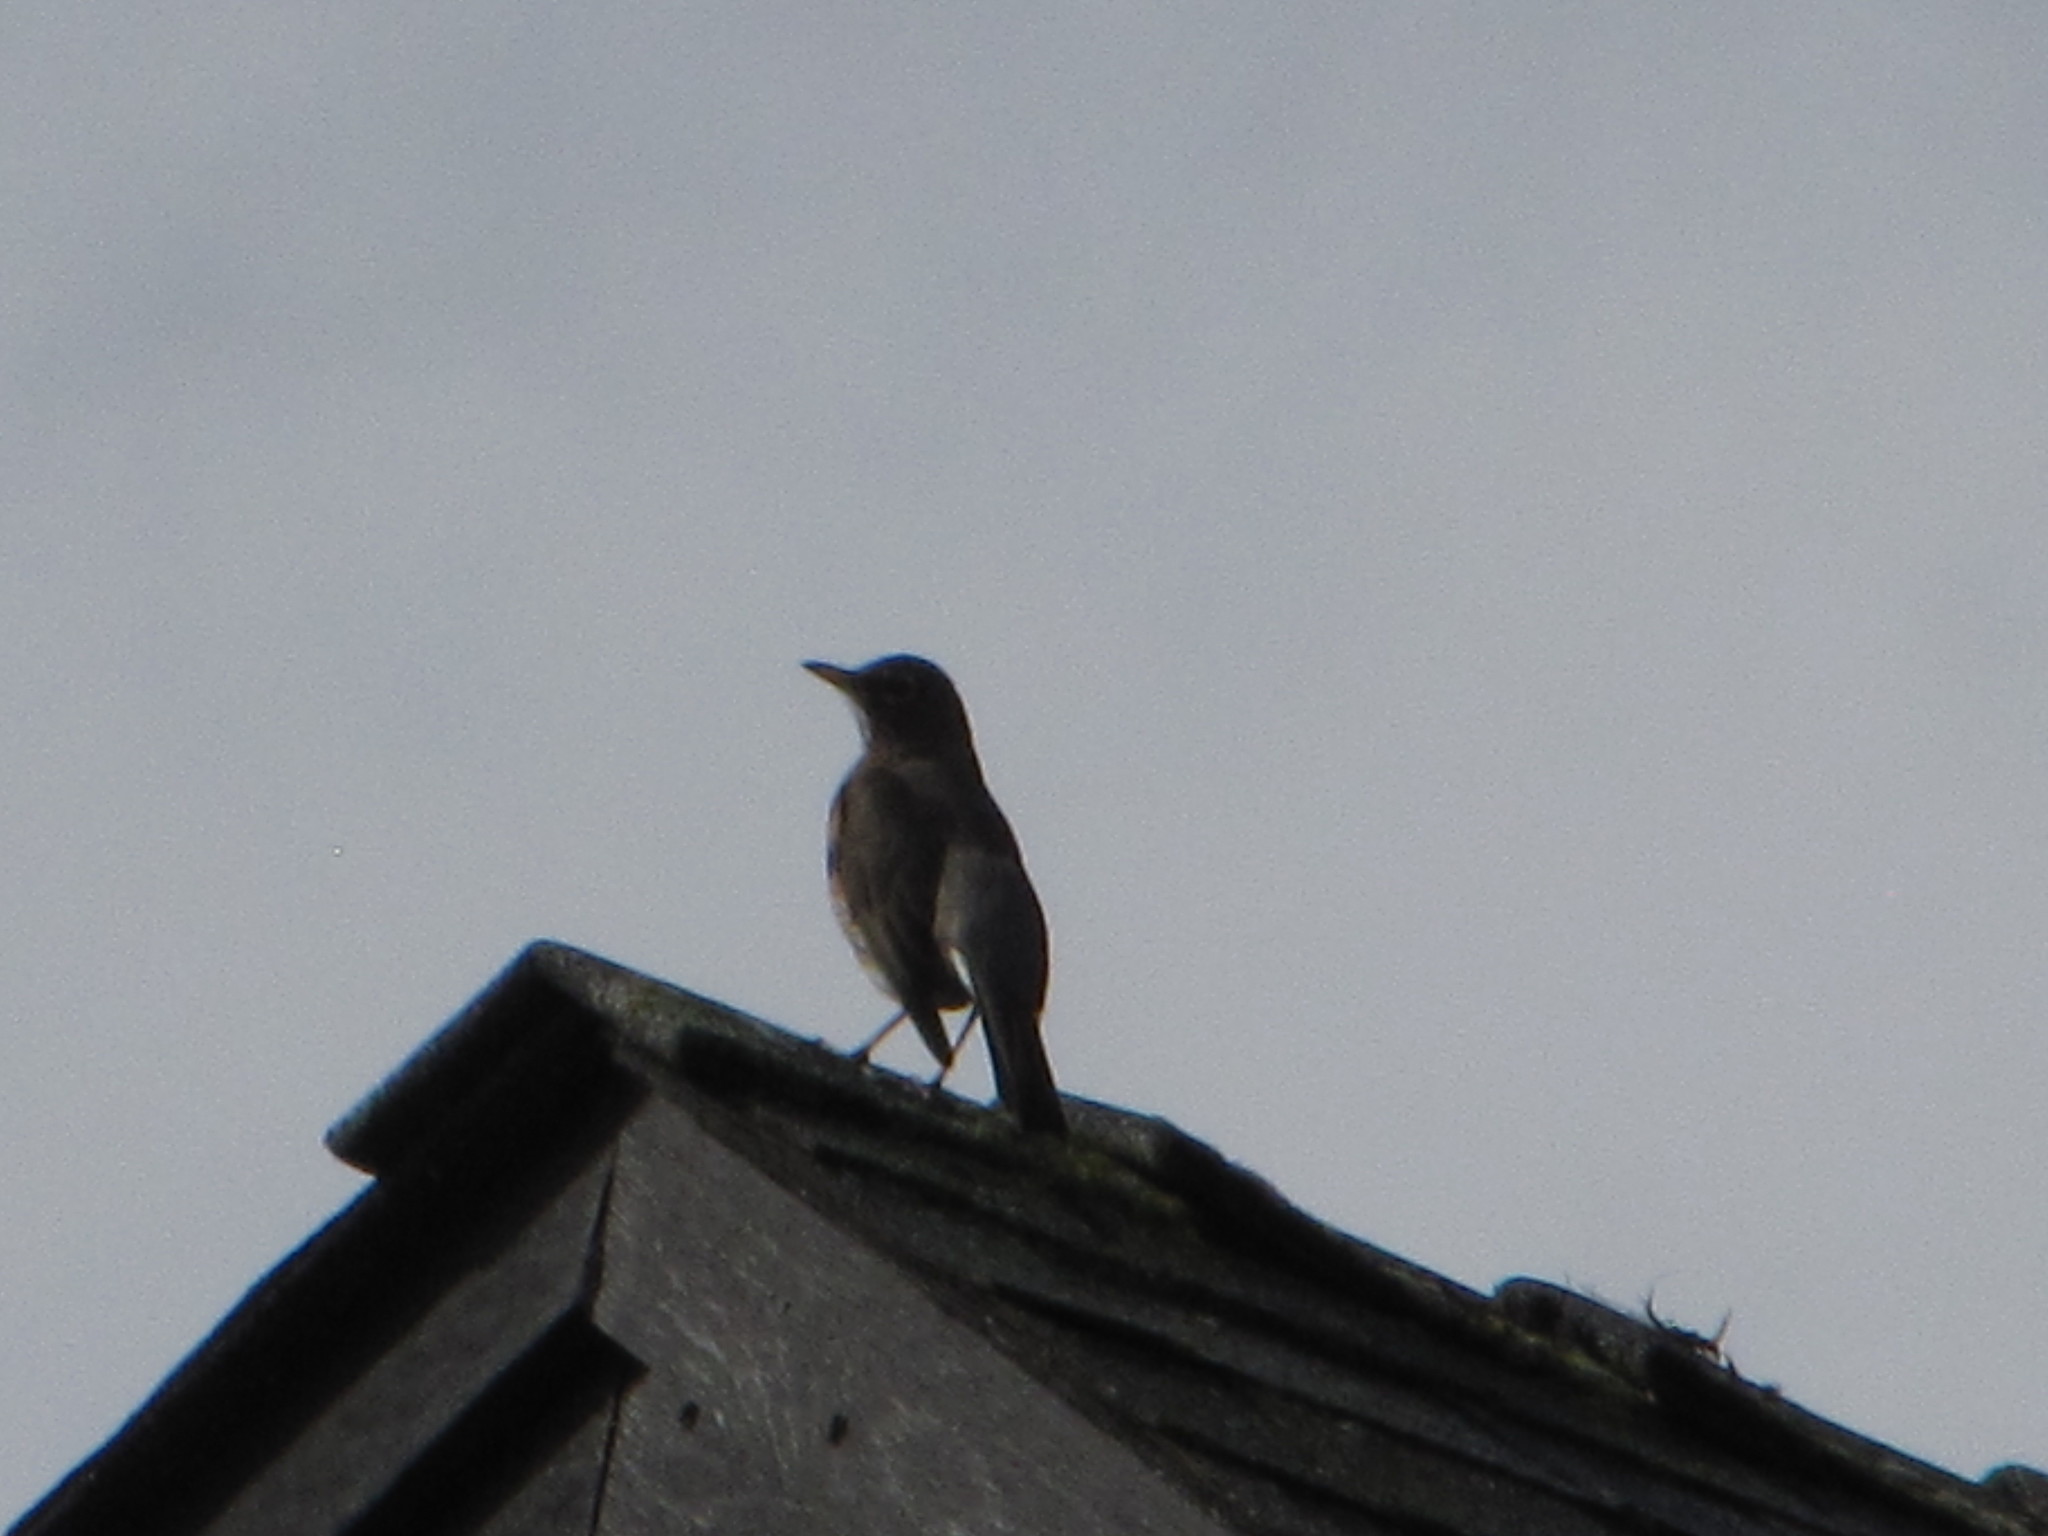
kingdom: Animalia
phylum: Chordata
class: Aves
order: Passeriformes
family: Turdidae
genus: Turdus
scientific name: Turdus migratorius
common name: American robin
